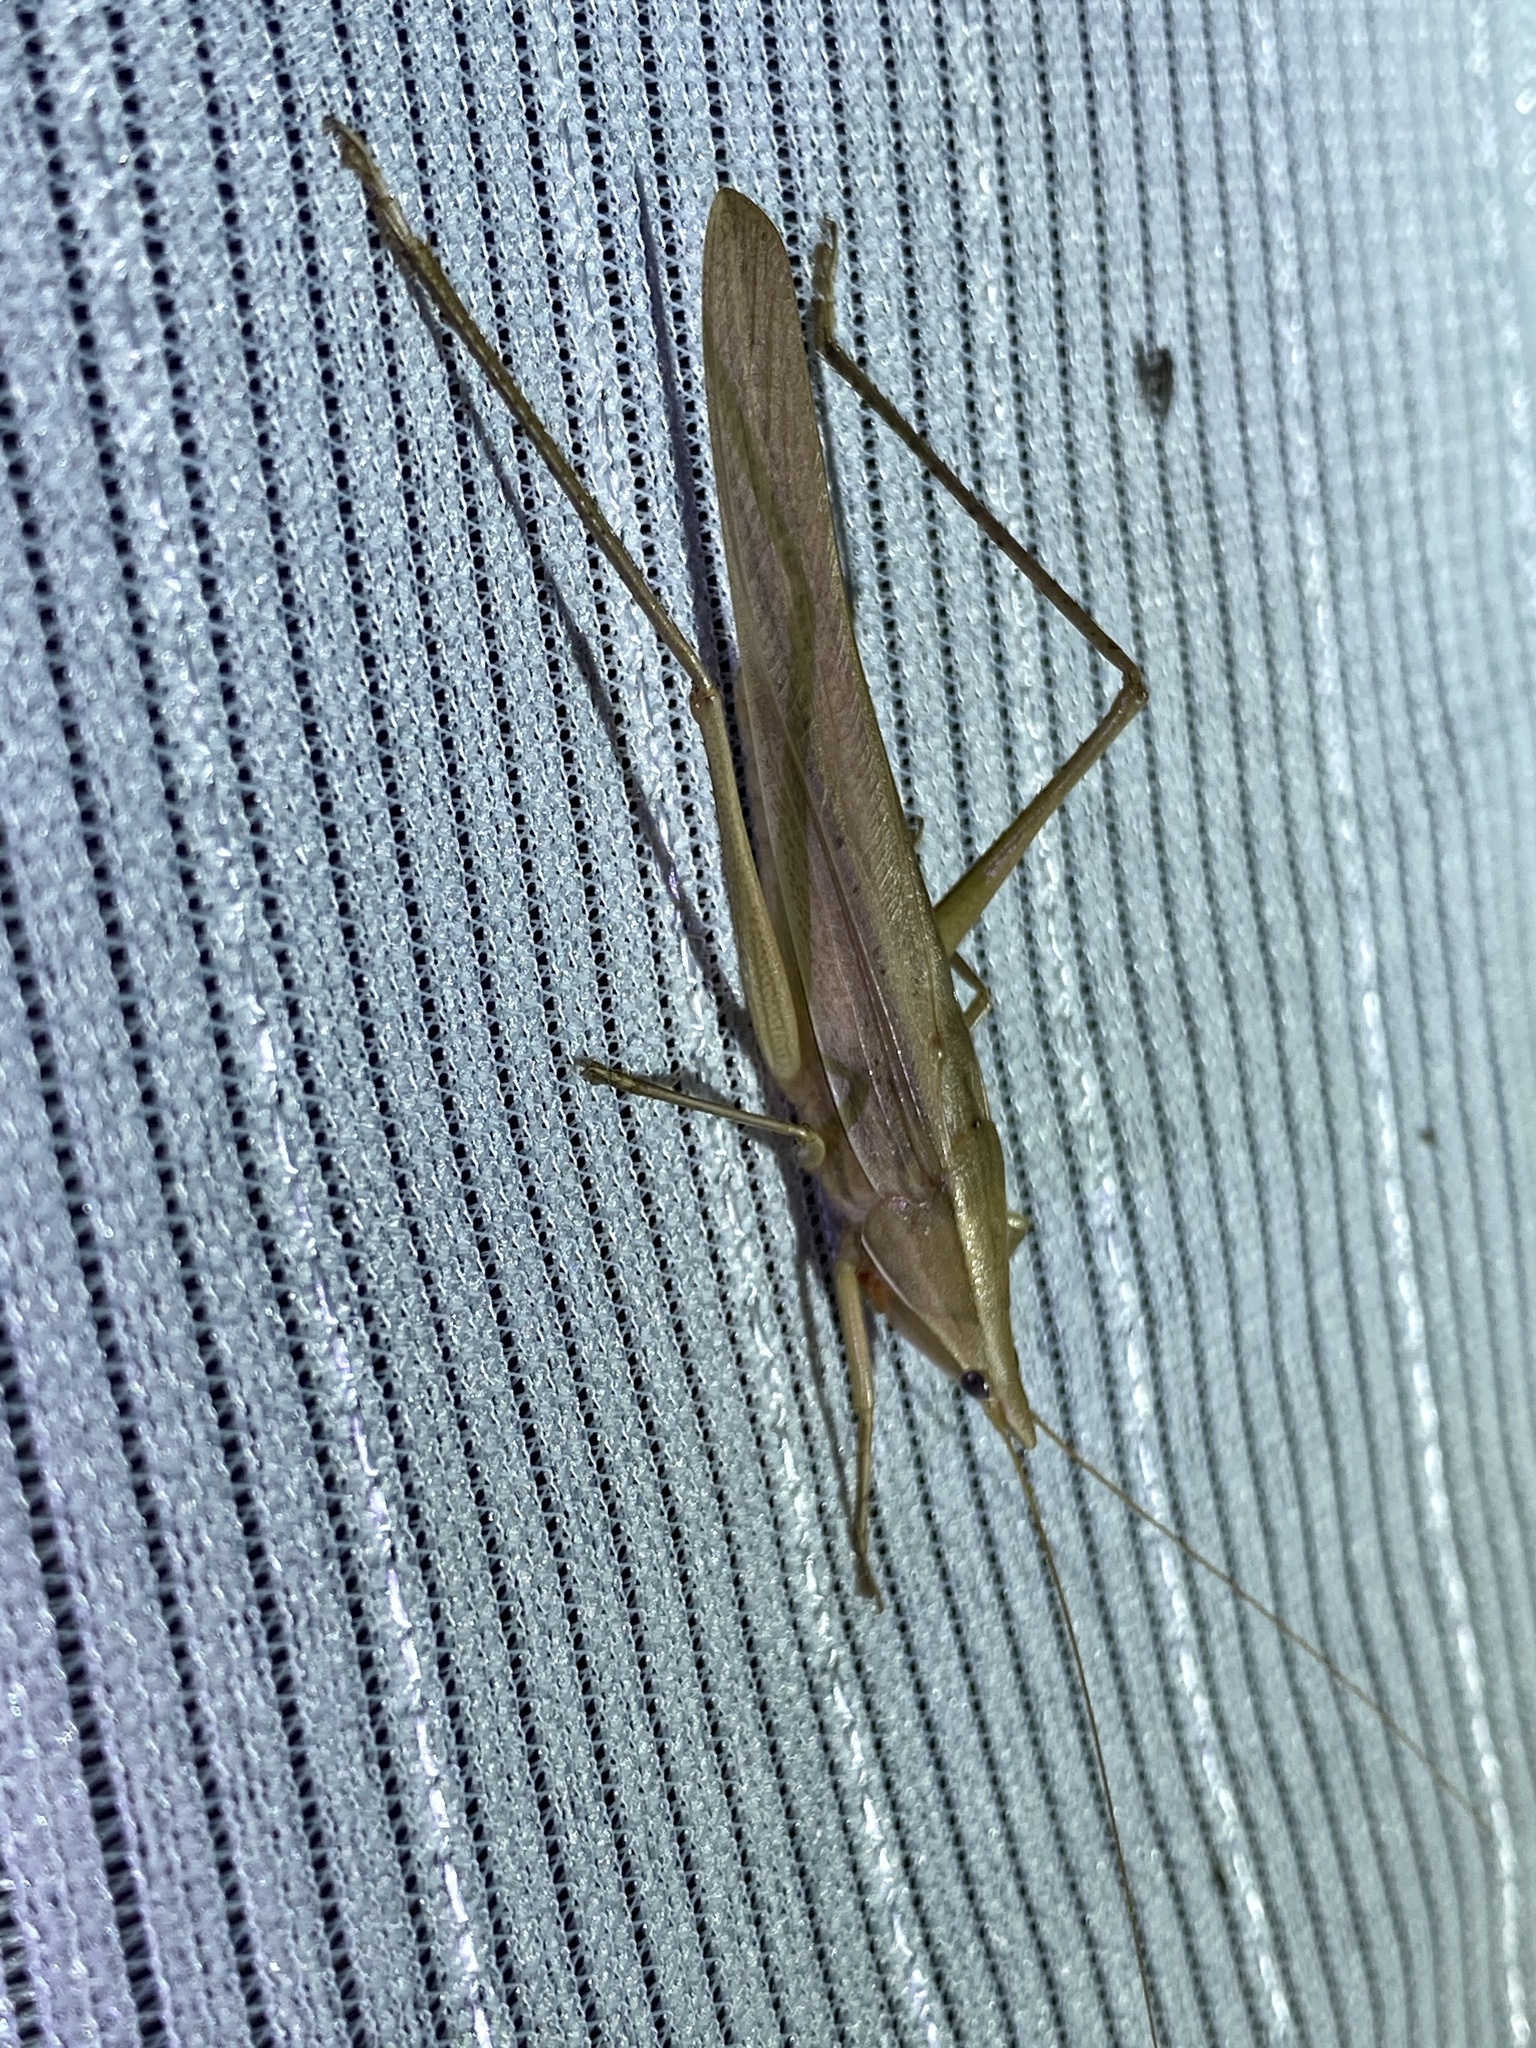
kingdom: Animalia
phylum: Arthropoda
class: Insecta
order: Orthoptera
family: Tettigoniidae
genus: Euconocephalus
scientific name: Euconocephalus varius
